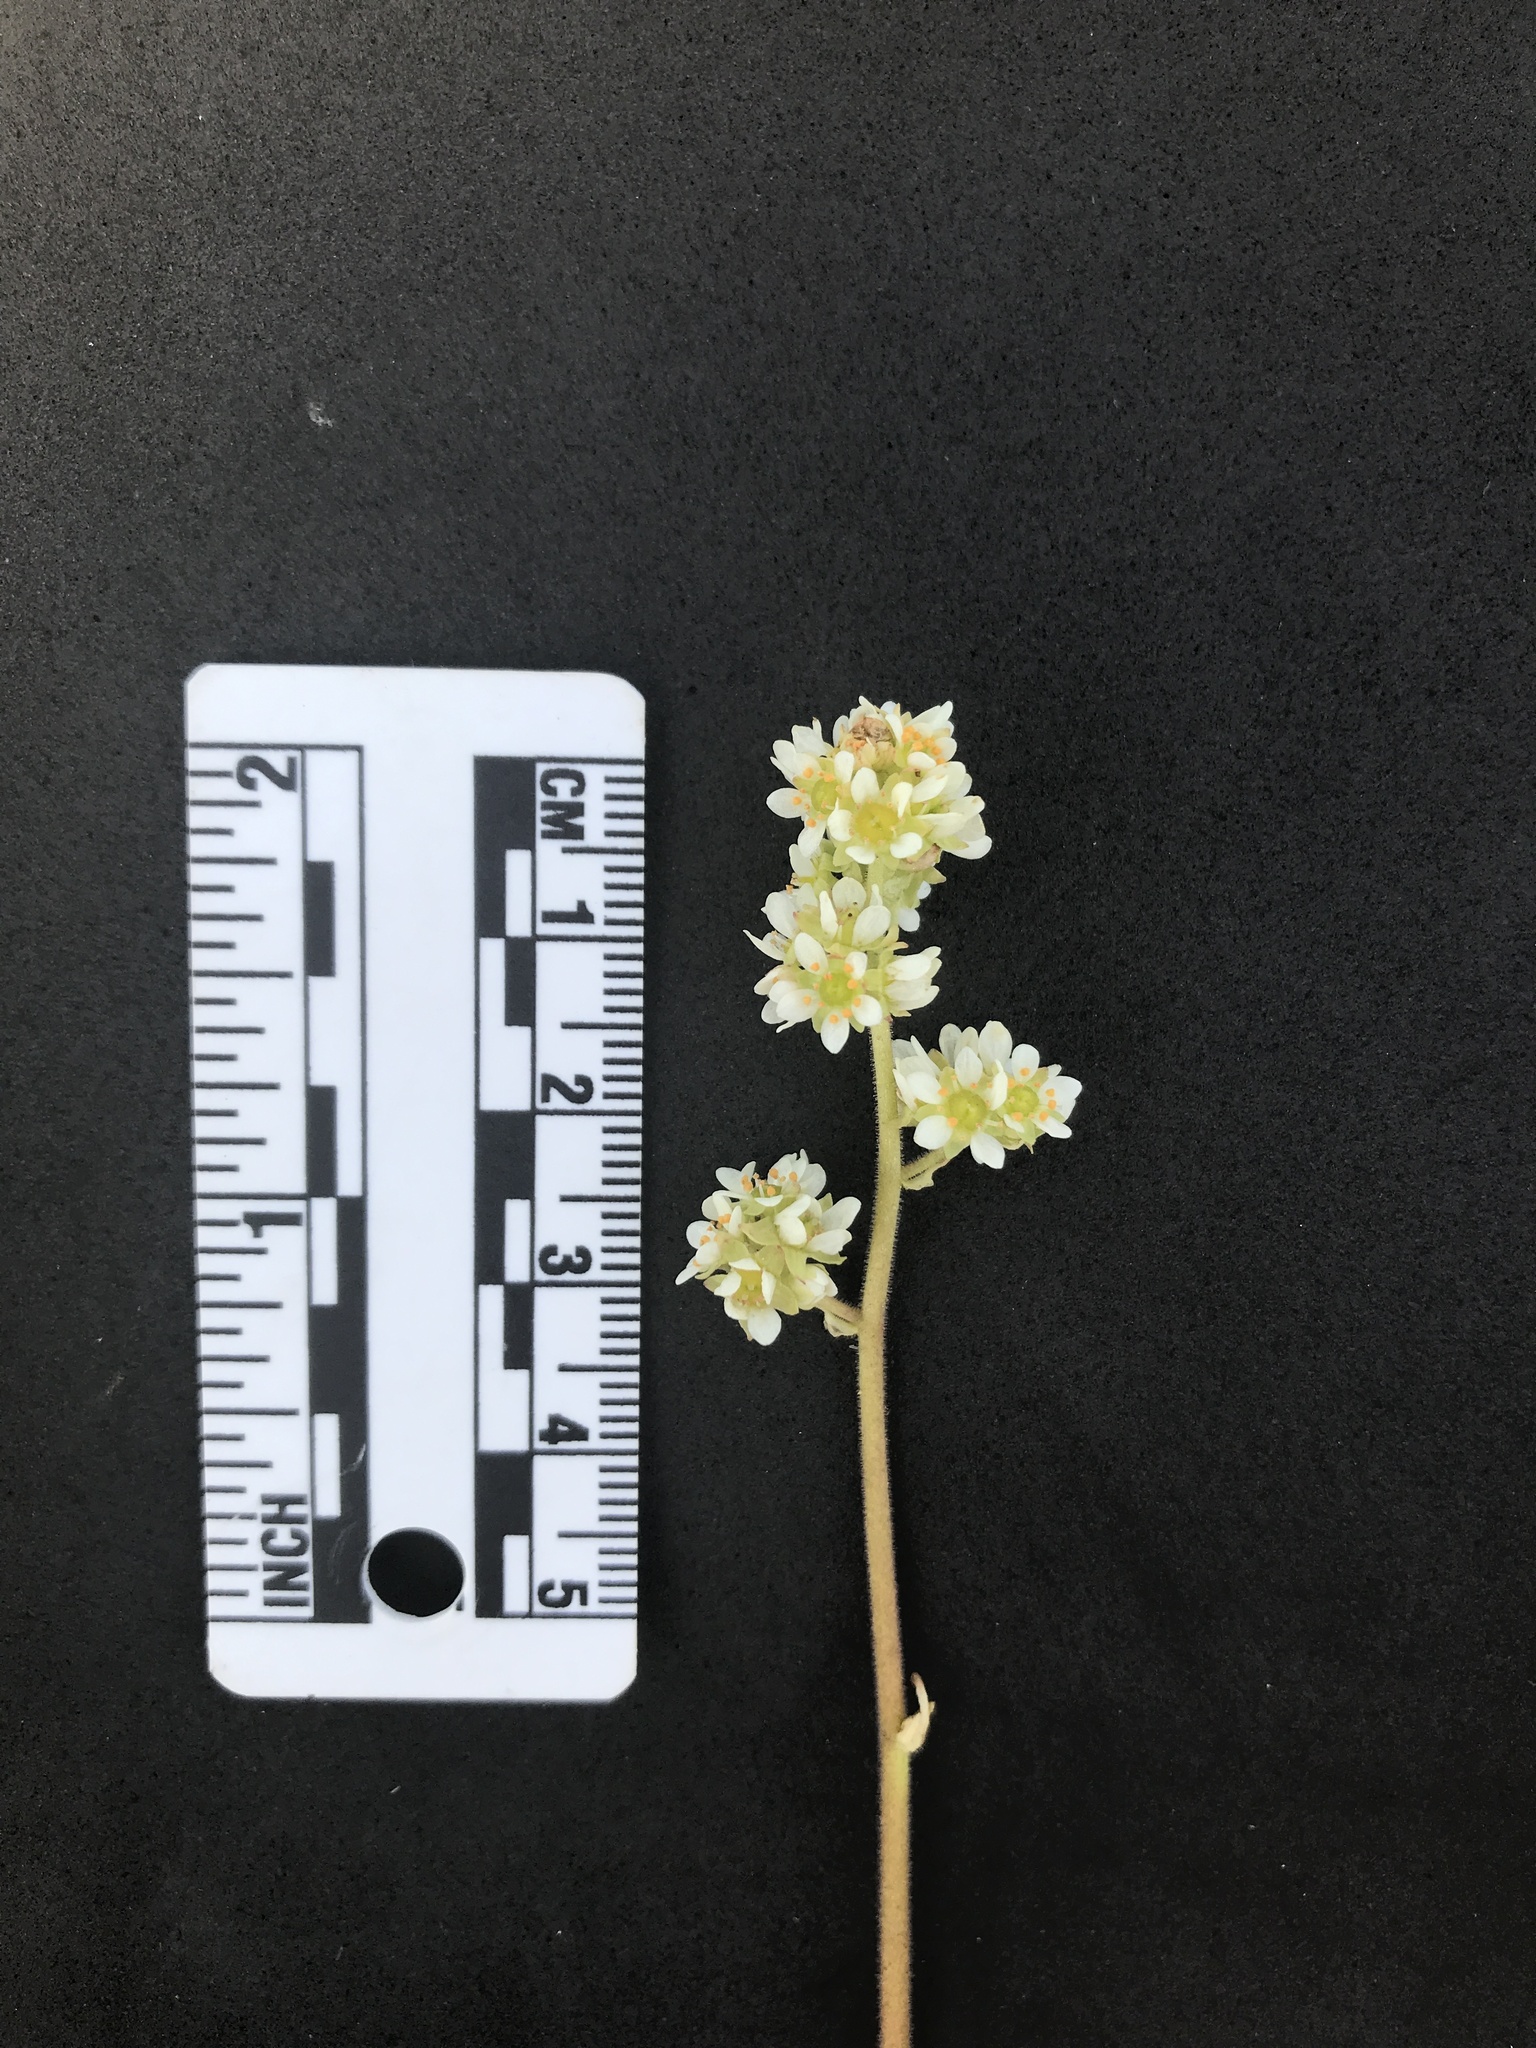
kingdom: Plantae
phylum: Tracheophyta
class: Magnoliopsida
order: Saxifragales
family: Saxifragaceae
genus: Micranthes
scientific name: Micranthes oregana
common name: Bog saxifrage
